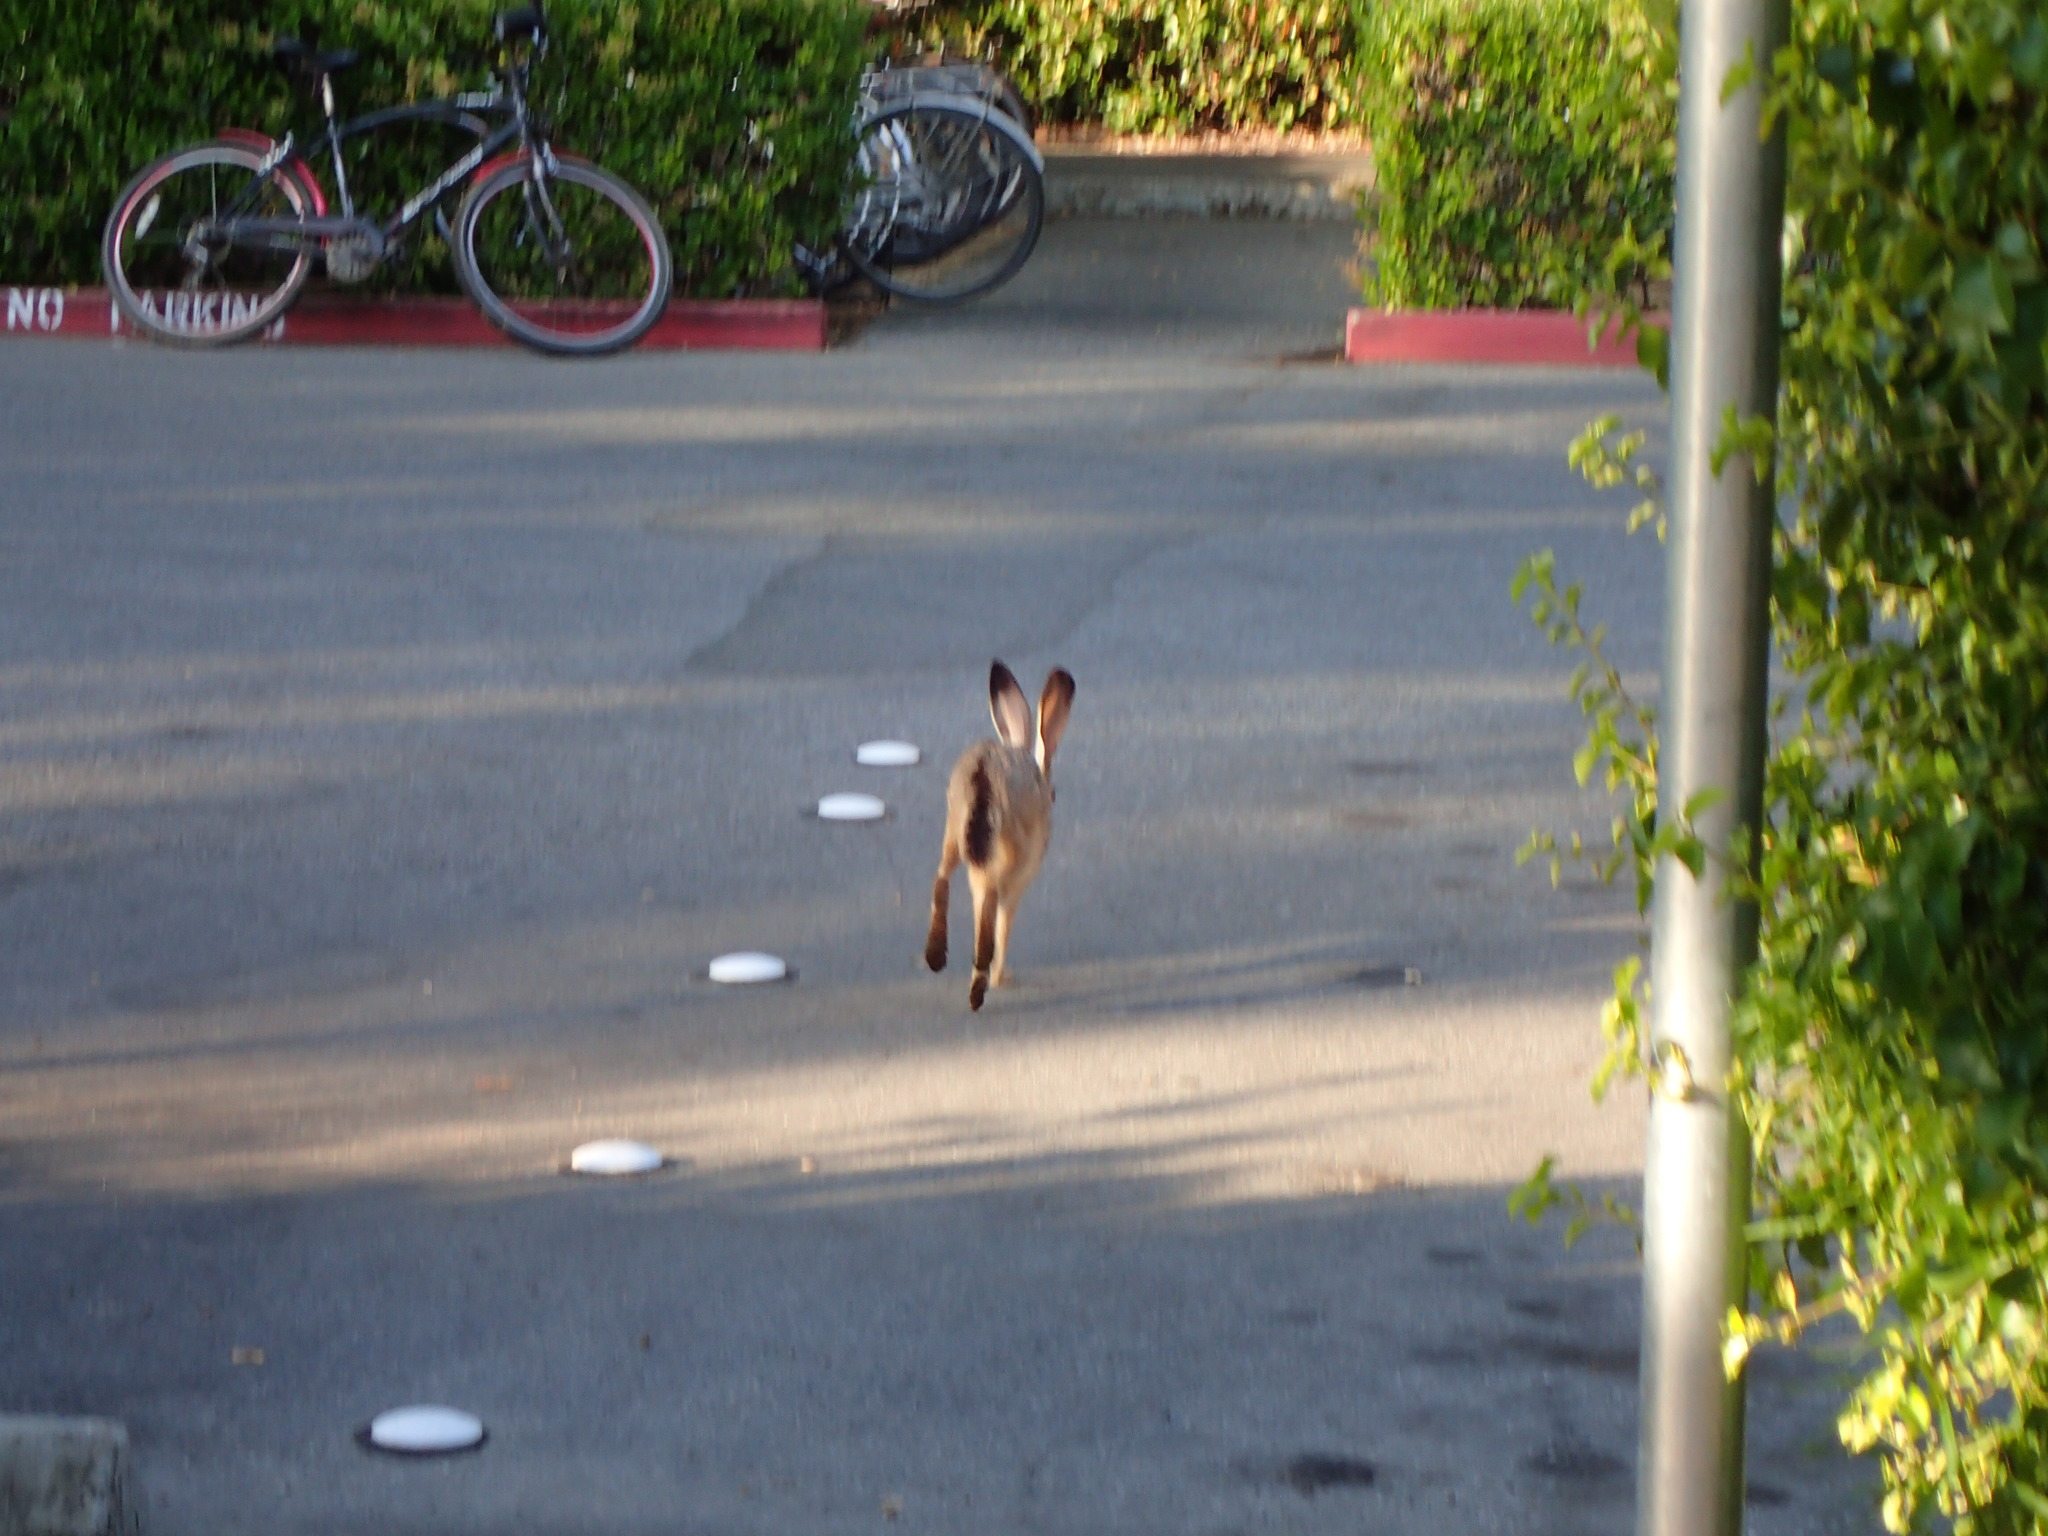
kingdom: Animalia
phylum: Chordata
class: Mammalia
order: Lagomorpha
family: Leporidae
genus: Lepus
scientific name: Lepus californicus
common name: Black-tailed jackrabbit
